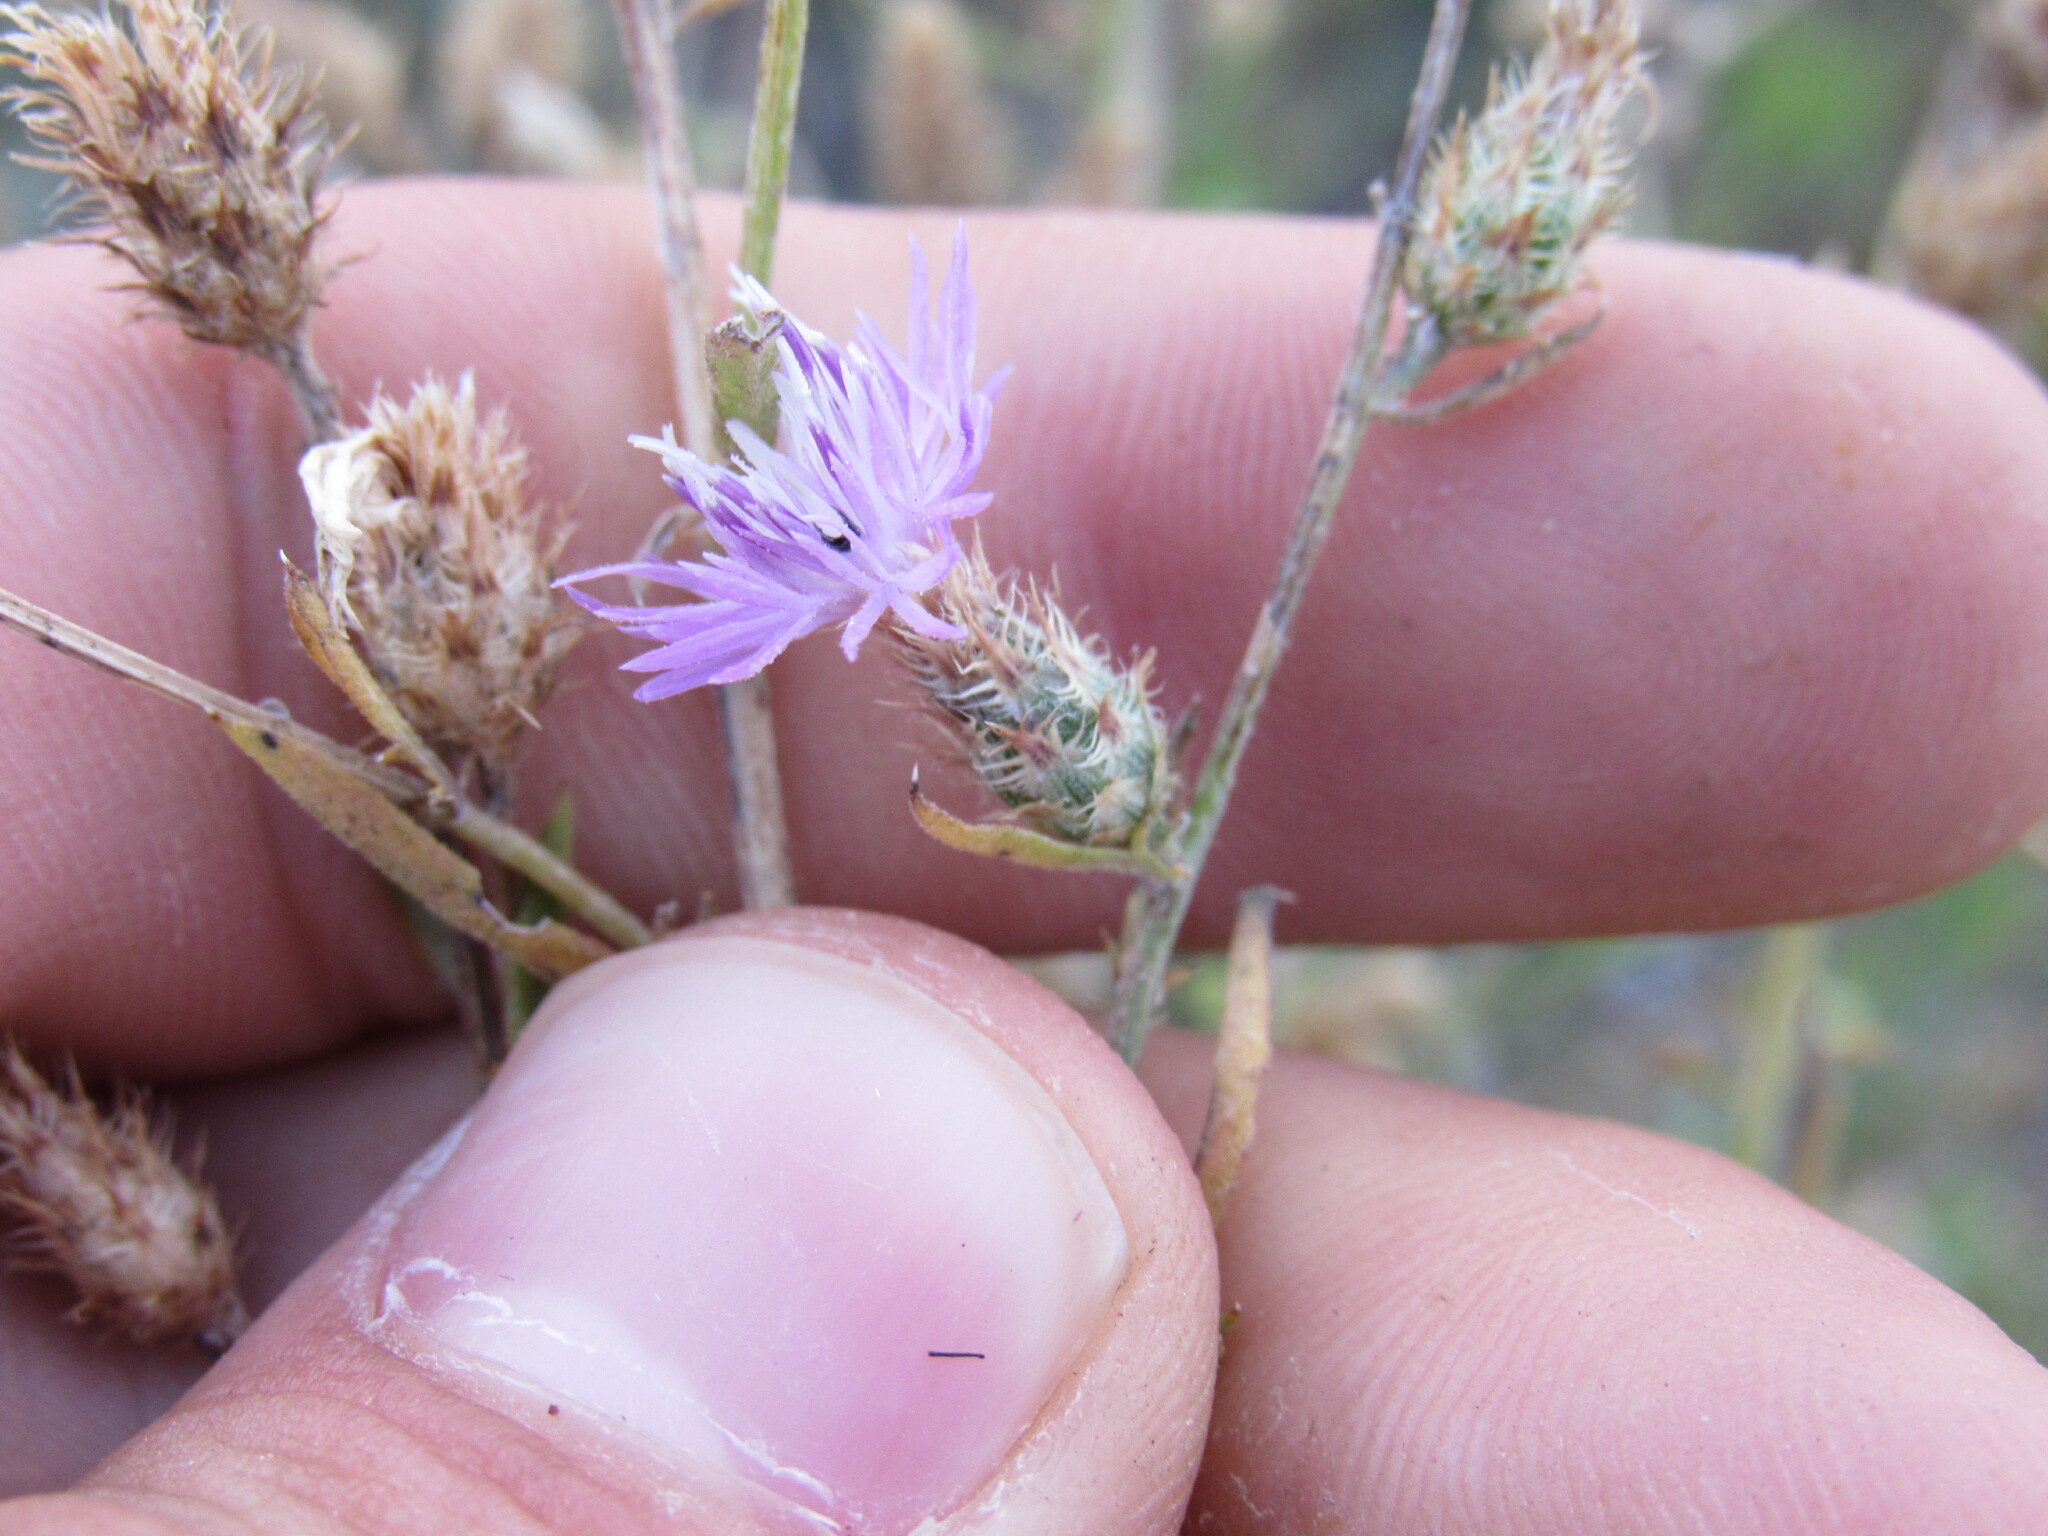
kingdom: Plantae
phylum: Tracheophyta
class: Magnoliopsida
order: Asterales
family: Asteraceae
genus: Centaurea
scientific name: Centaurea diffusa
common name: Diffuse knapweed
